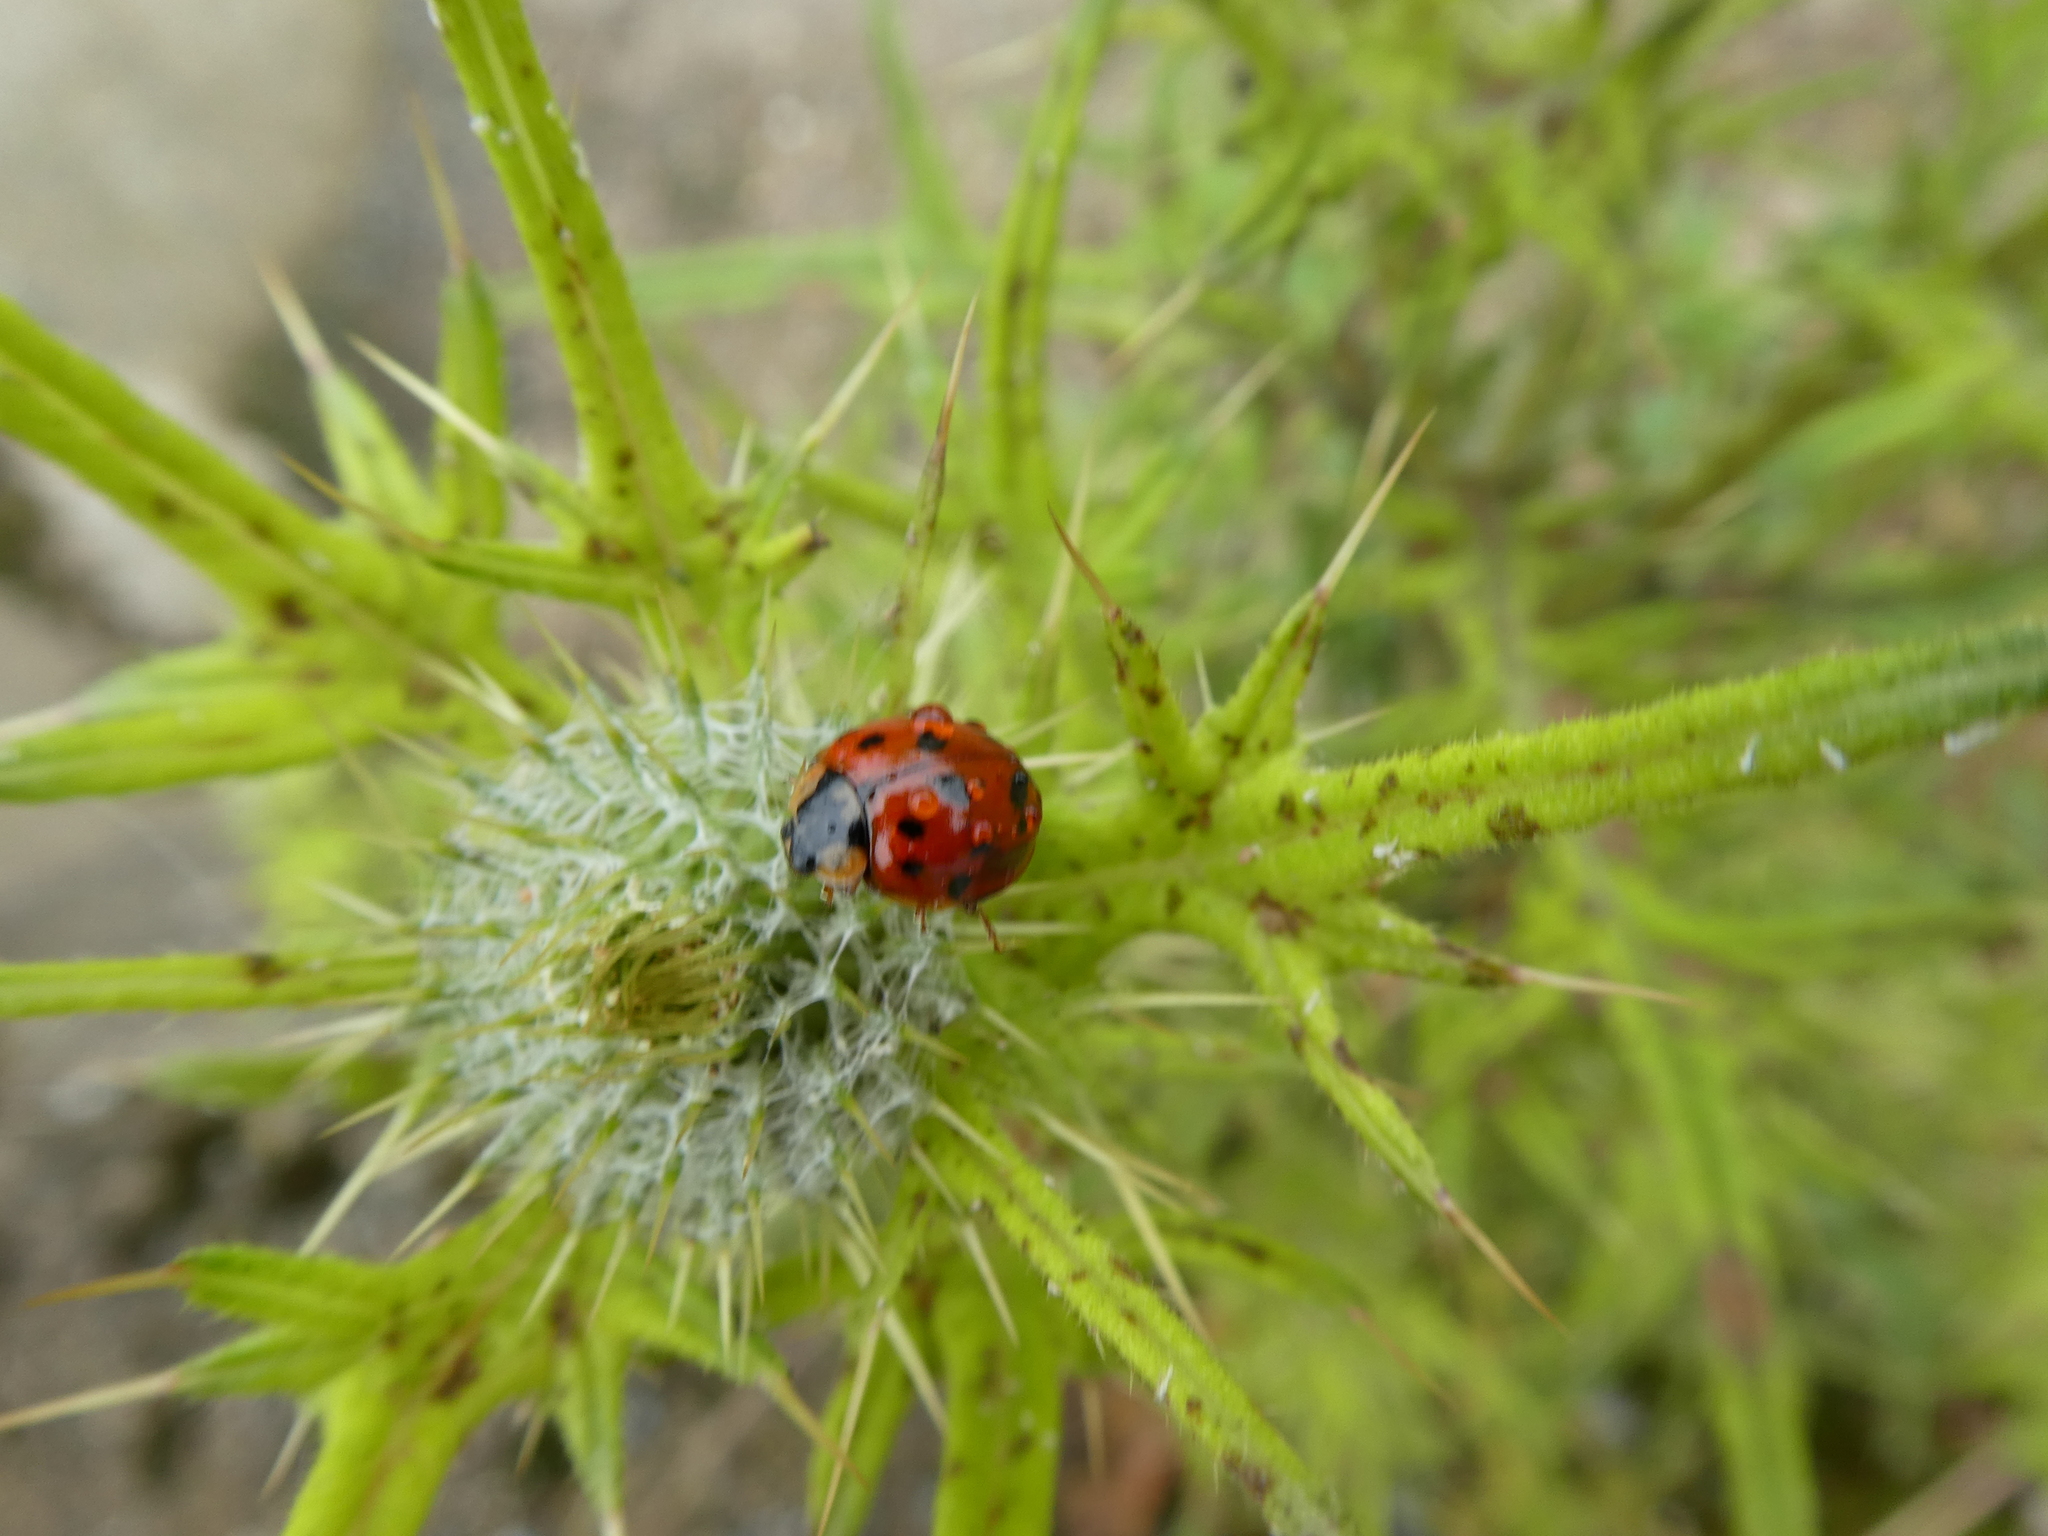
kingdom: Animalia
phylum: Arthropoda
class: Insecta
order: Coleoptera
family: Coccinellidae
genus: Harmonia
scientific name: Harmonia axyridis
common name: Harlequin ladybird
